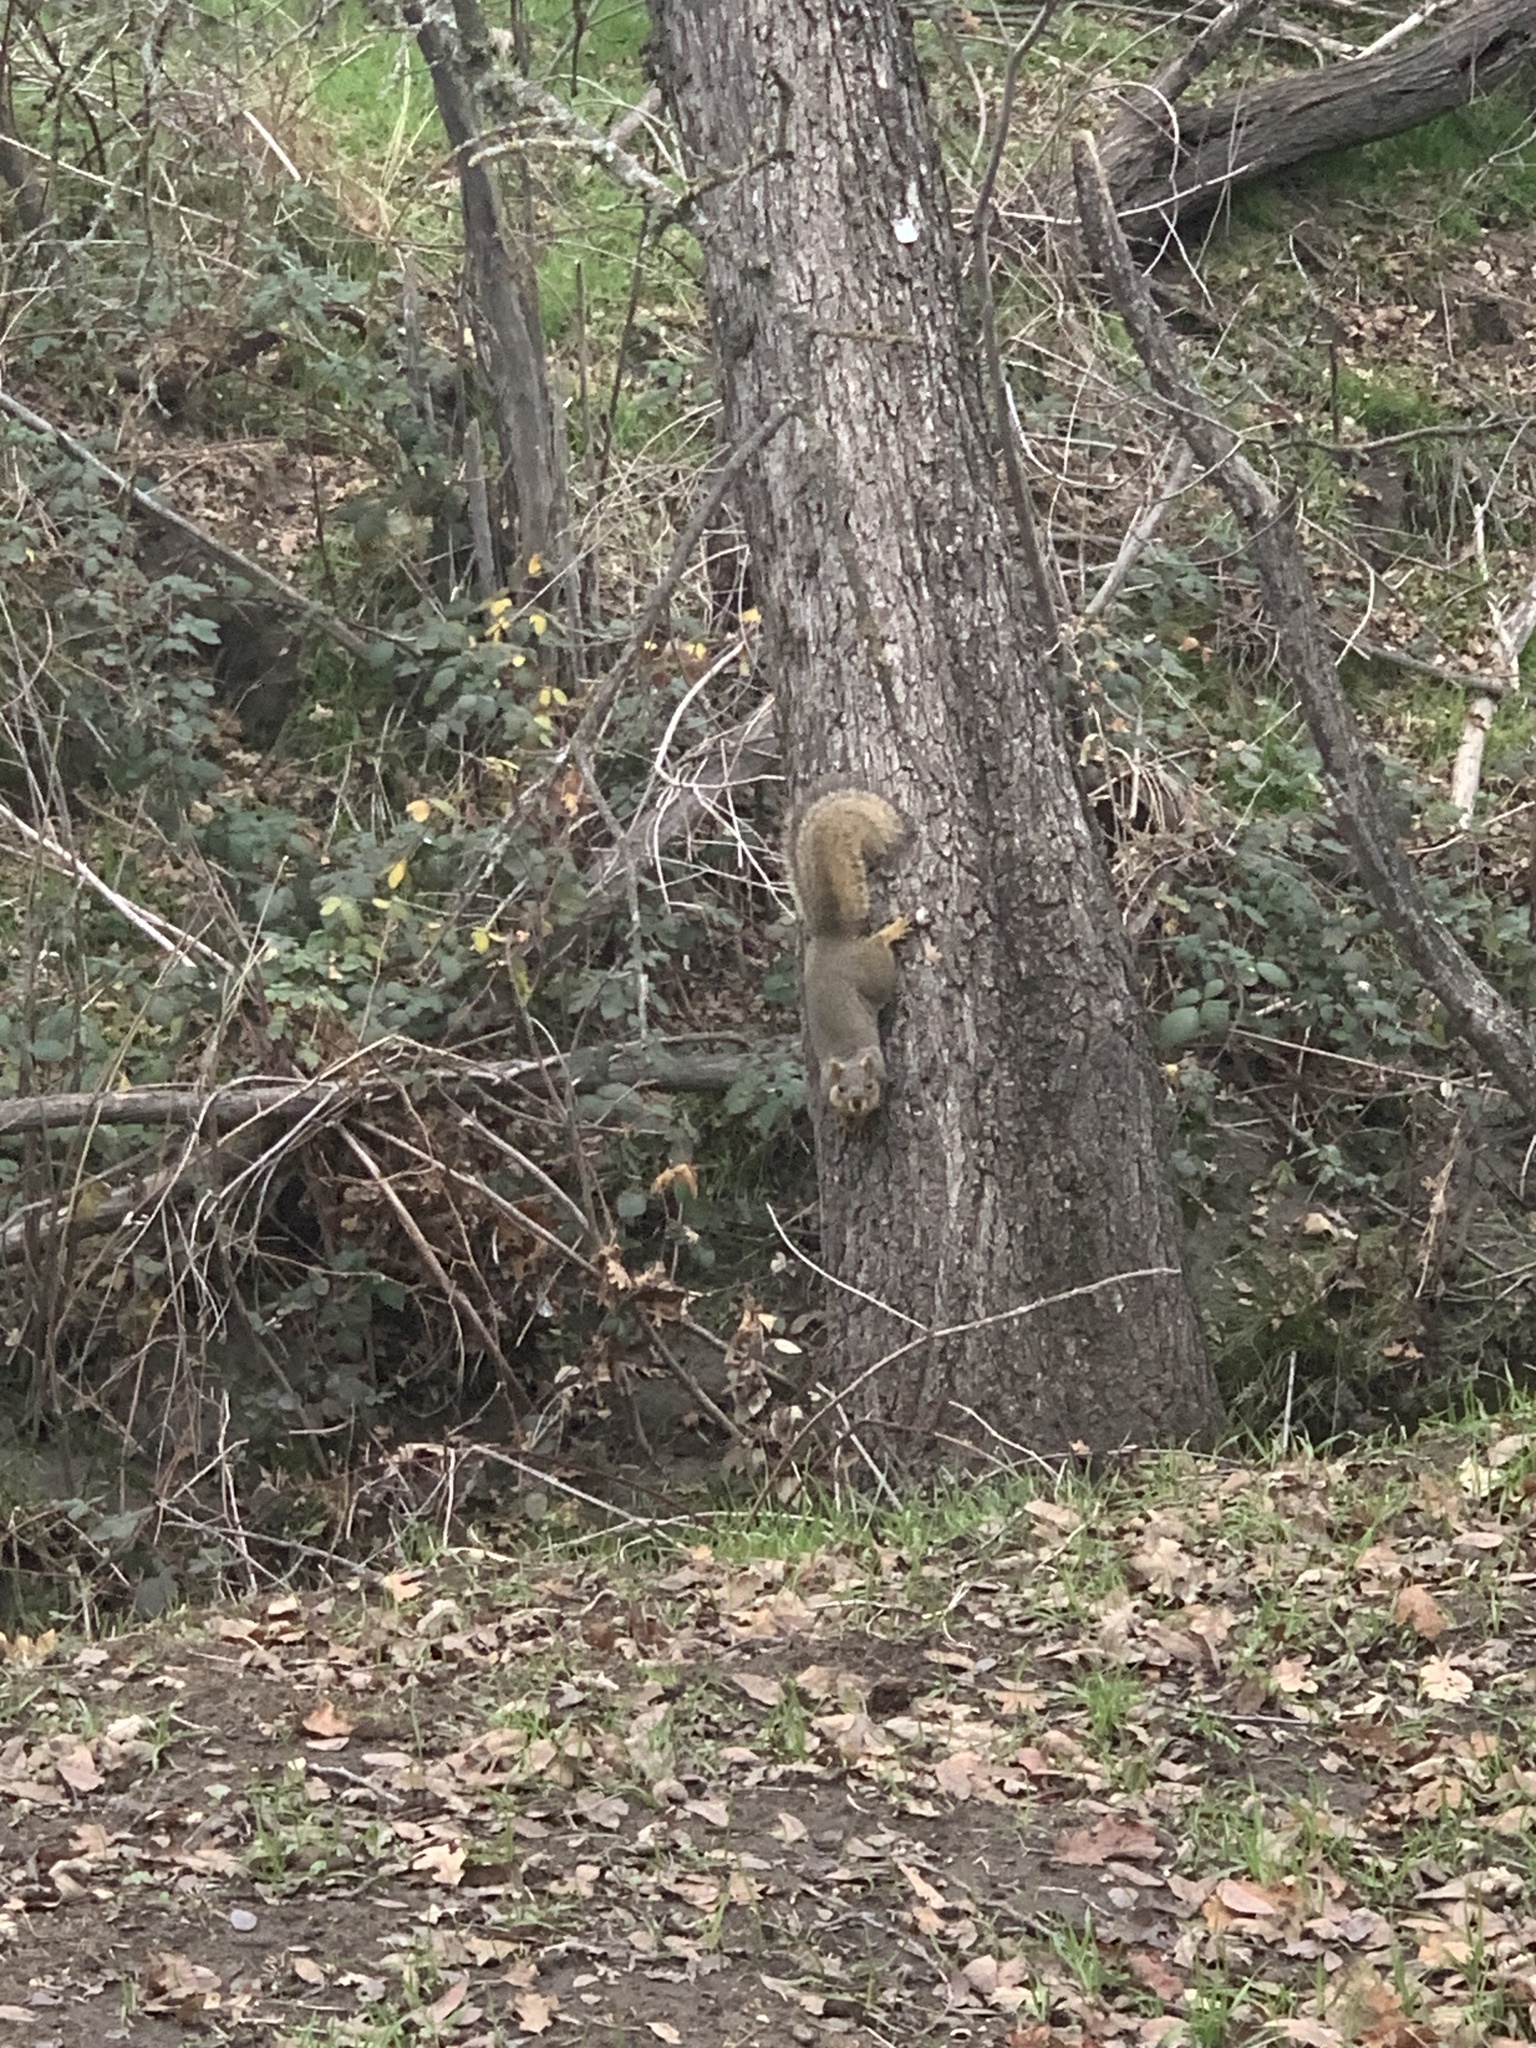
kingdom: Animalia
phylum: Chordata
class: Mammalia
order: Rodentia
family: Sciuridae
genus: Sciurus
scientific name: Sciurus niger
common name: Fox squirrel
